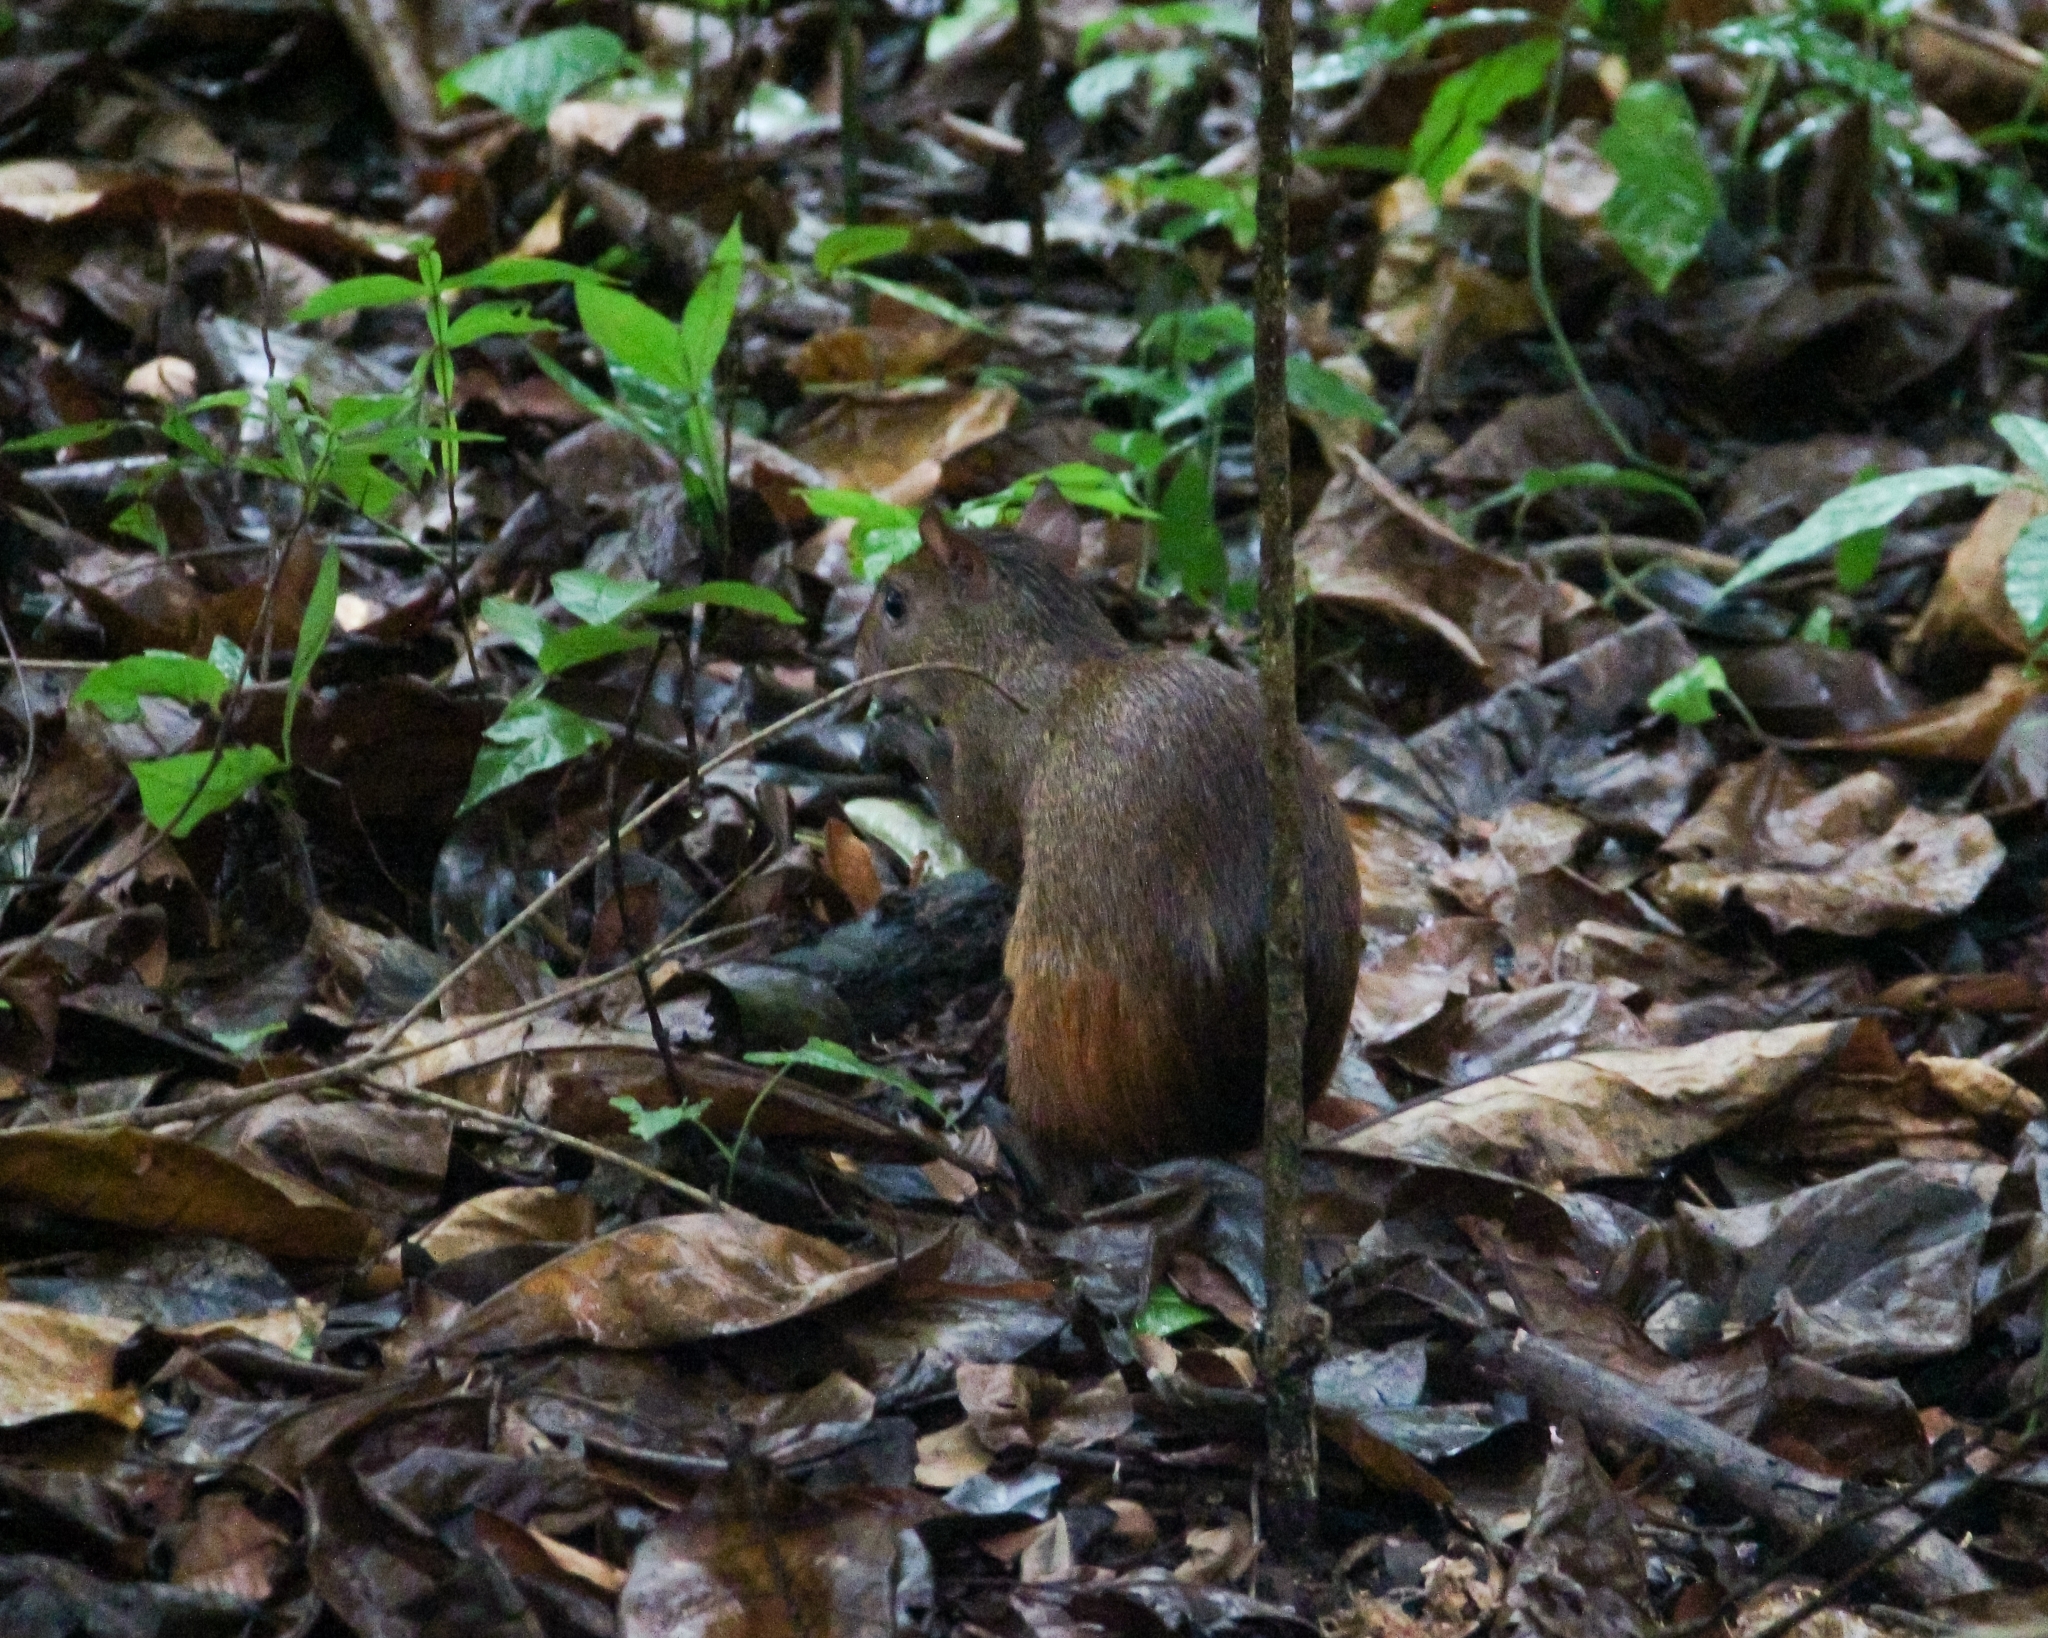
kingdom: Animalia
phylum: Chordata
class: Mammalia
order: Rodentia
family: Dasyproctidae
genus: Dasyprocta
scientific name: Dasyprocta iacki
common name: Iack’s red-rumped agouti
